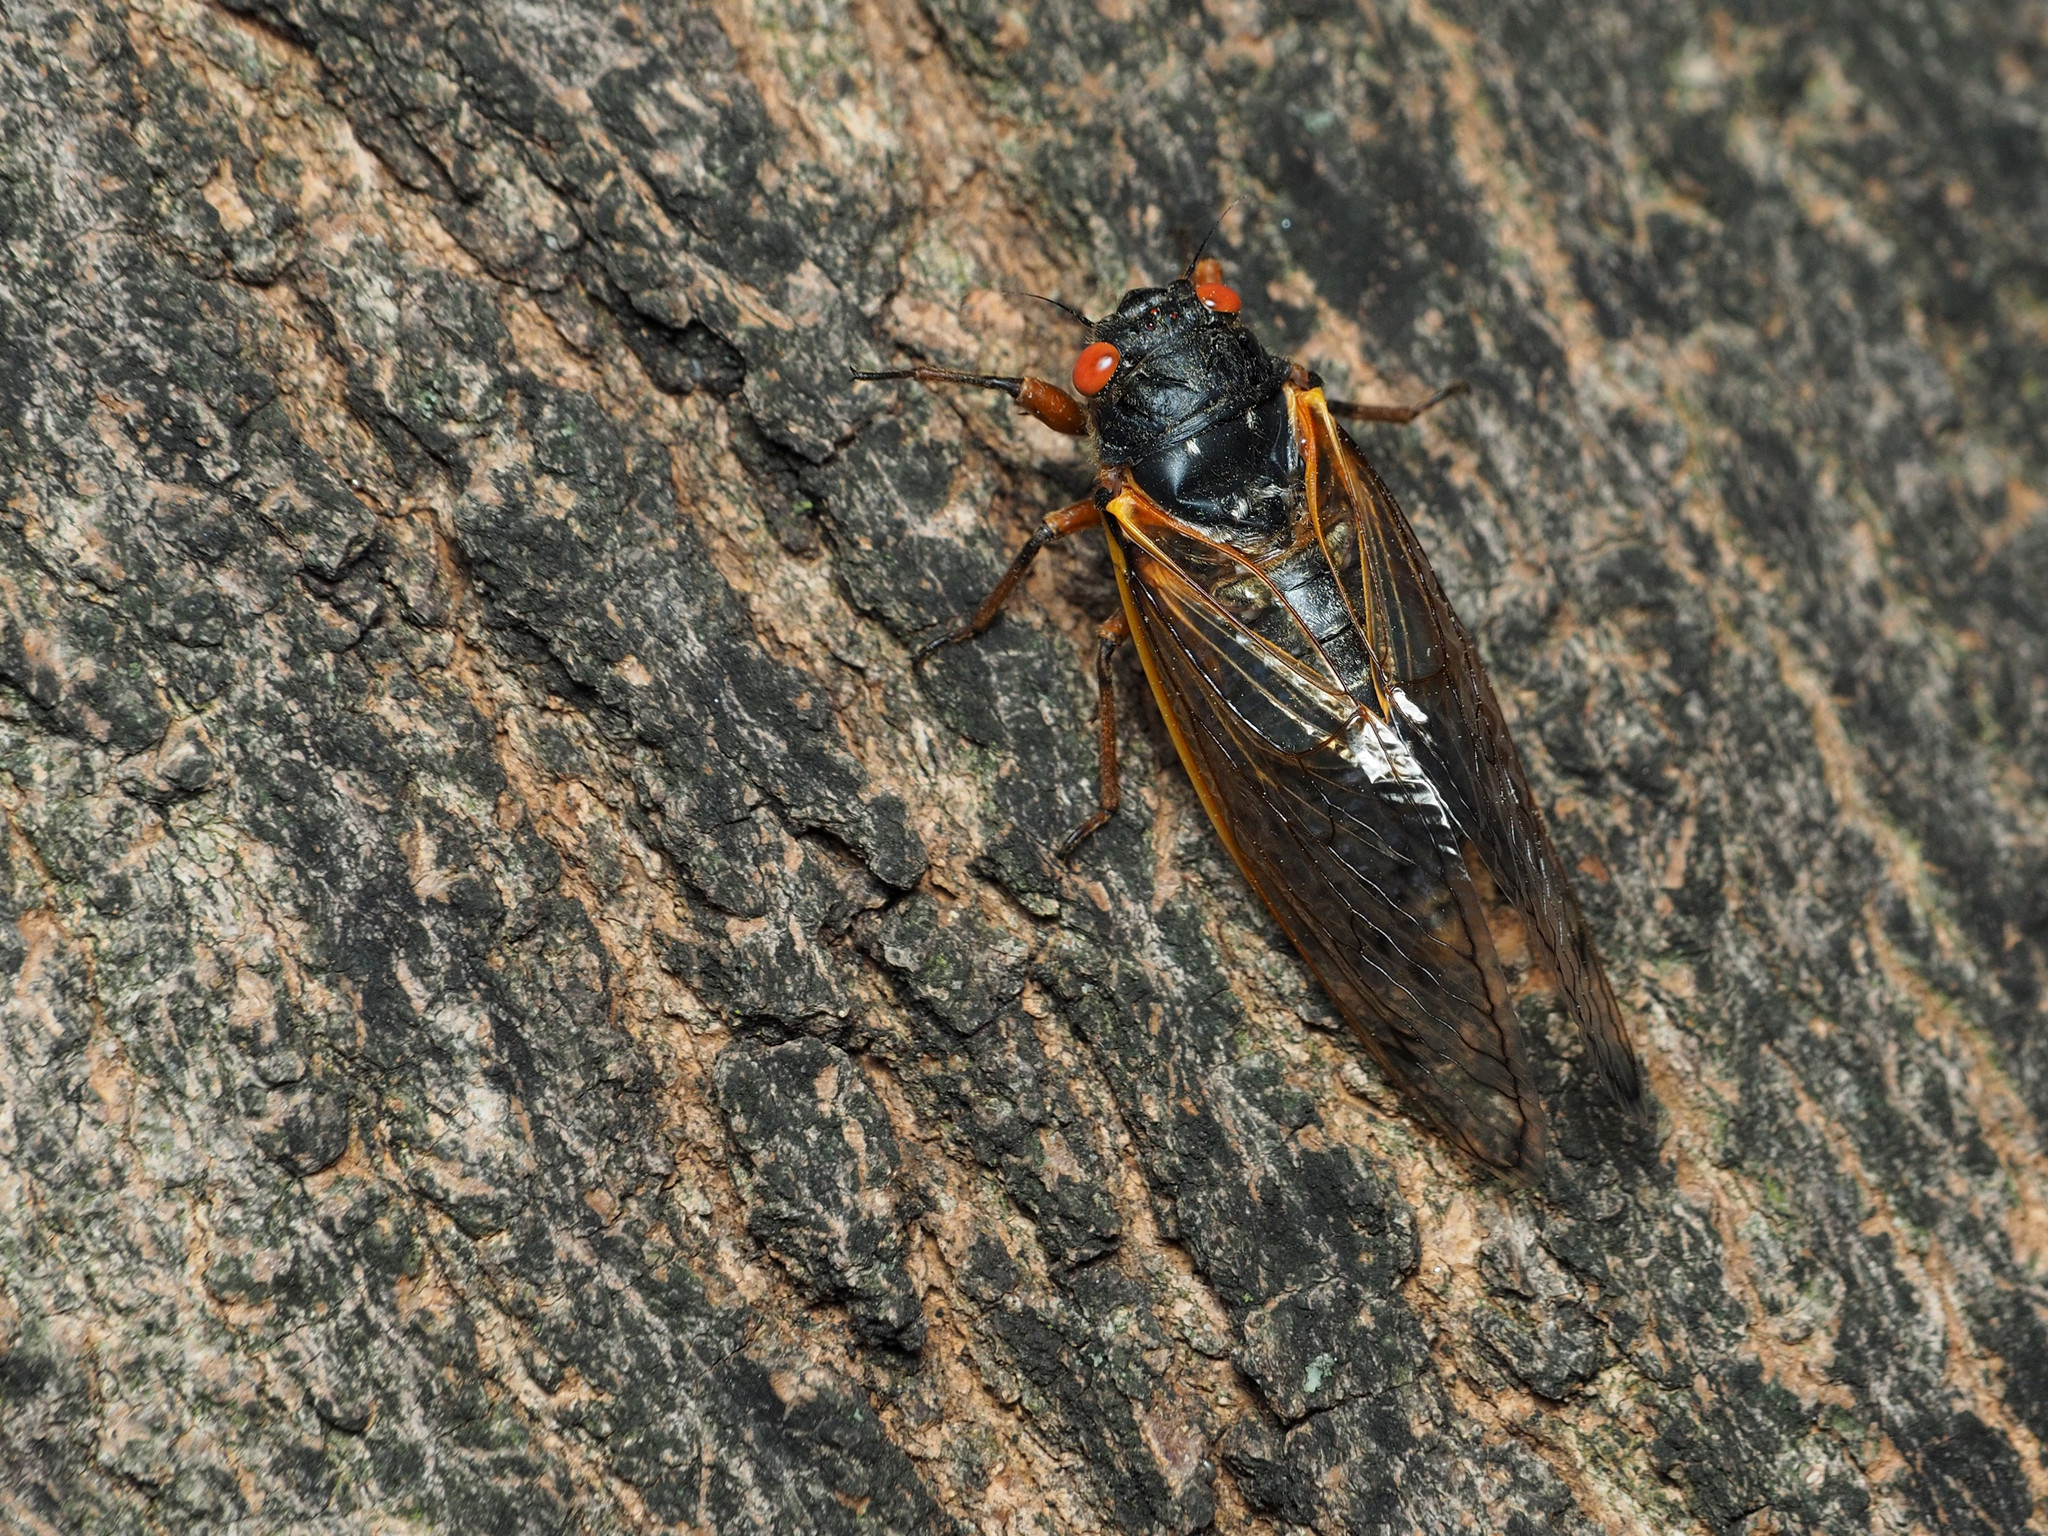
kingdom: Animalia
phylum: Arthropoda
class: Insecta
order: Hemiptera
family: Cicadidae
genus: Magicicada
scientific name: Magicicada septendecim
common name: Periodical cicada
